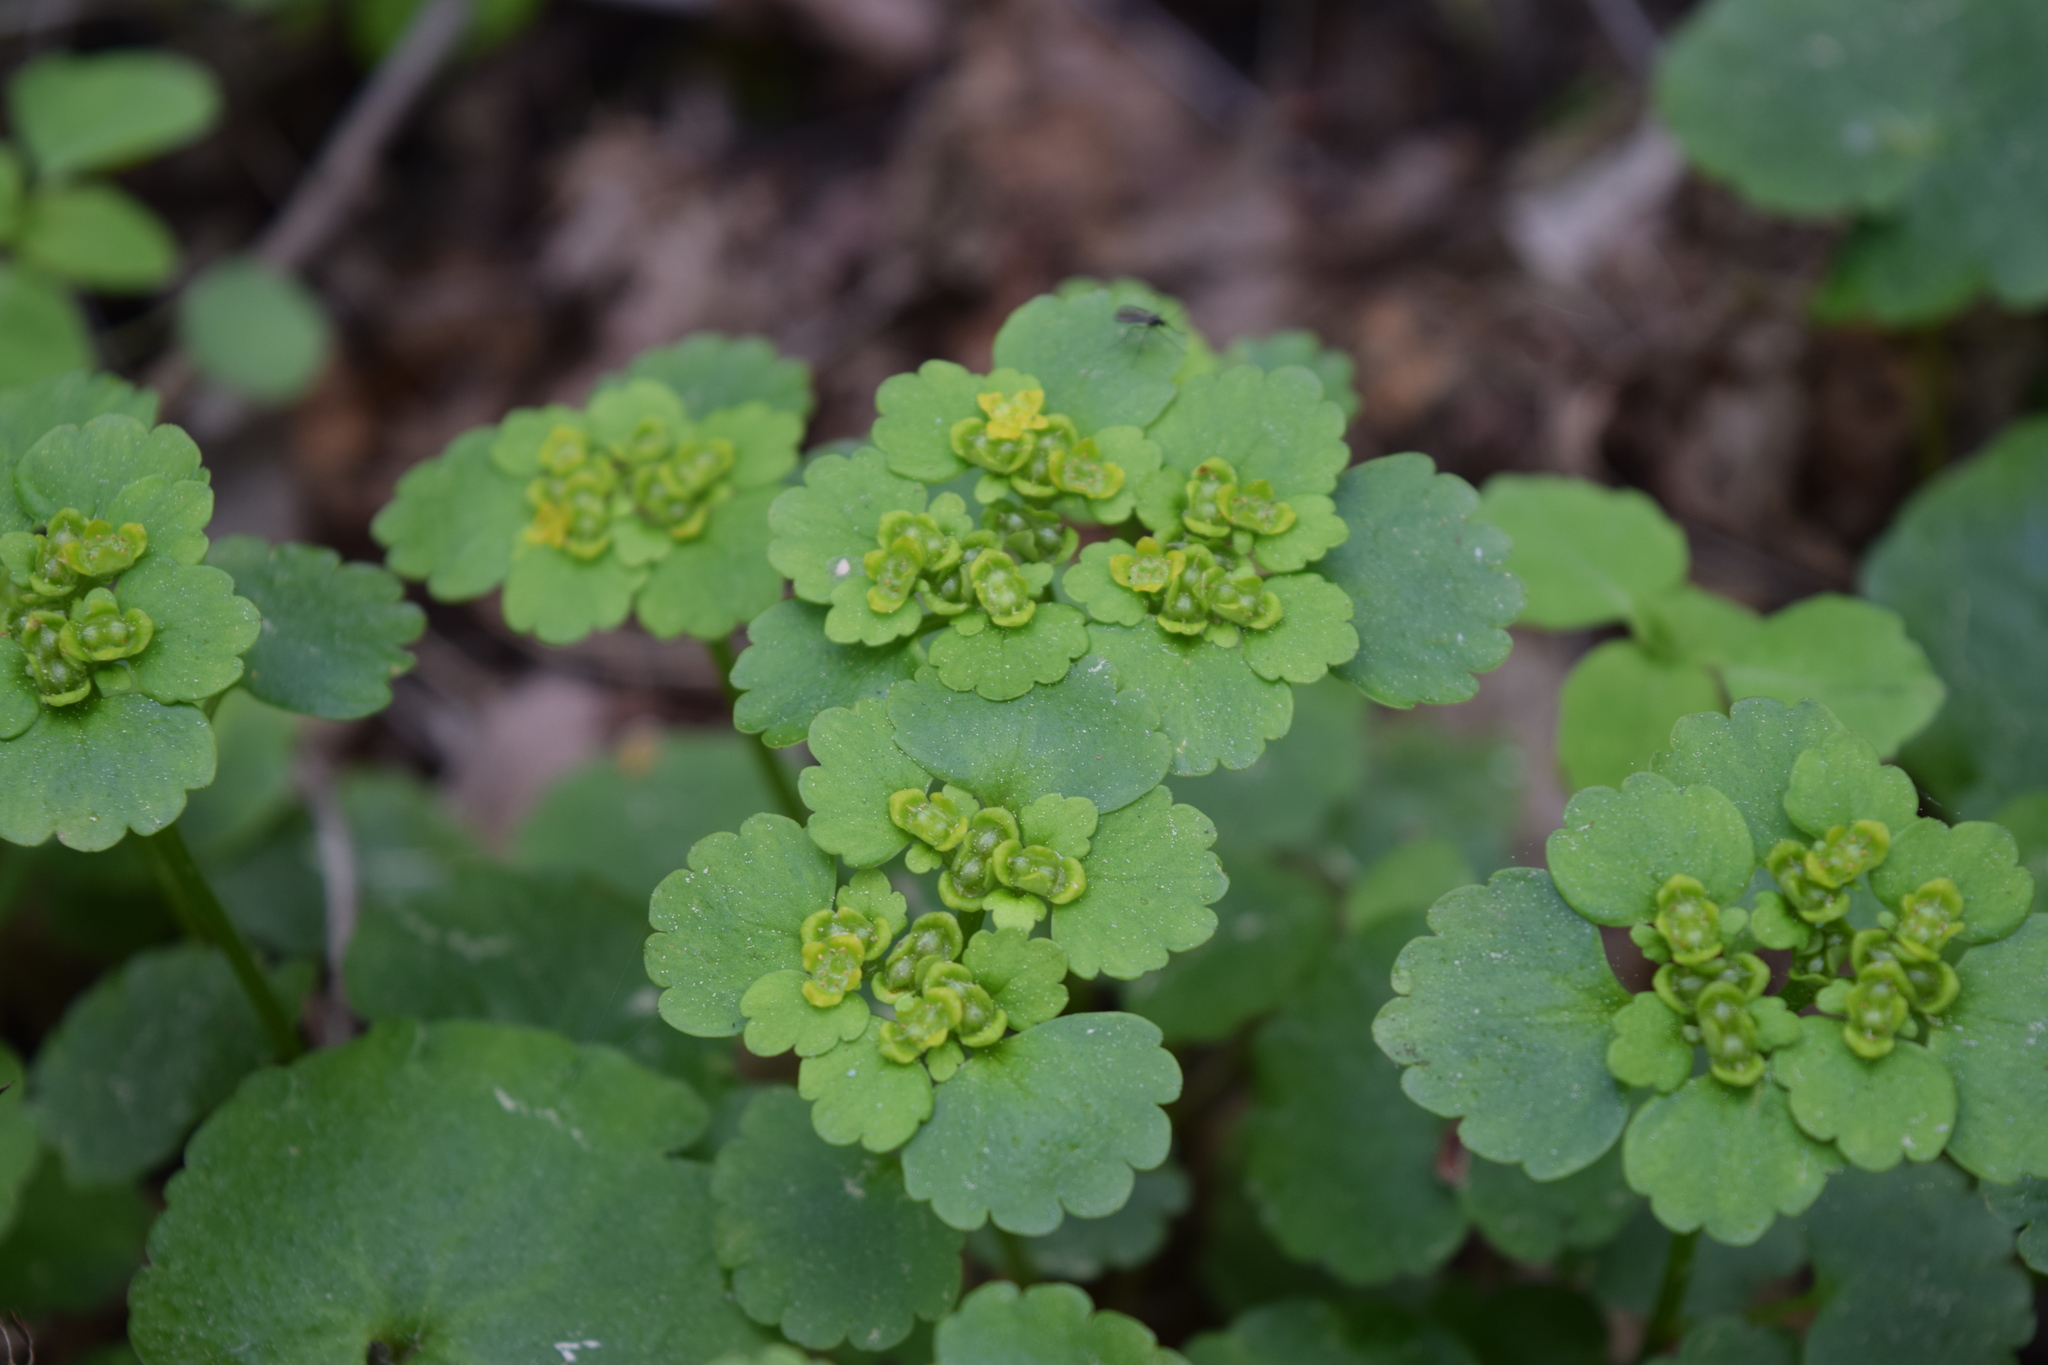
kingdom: Plantae
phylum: Tracheophyta
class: Magnoliopsida
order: Saxifragales
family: Saxifragaceae
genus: Chrysosplenium
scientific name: Chrysosplenium alternifolium
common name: Alternate-leaved golden-saxifrage
